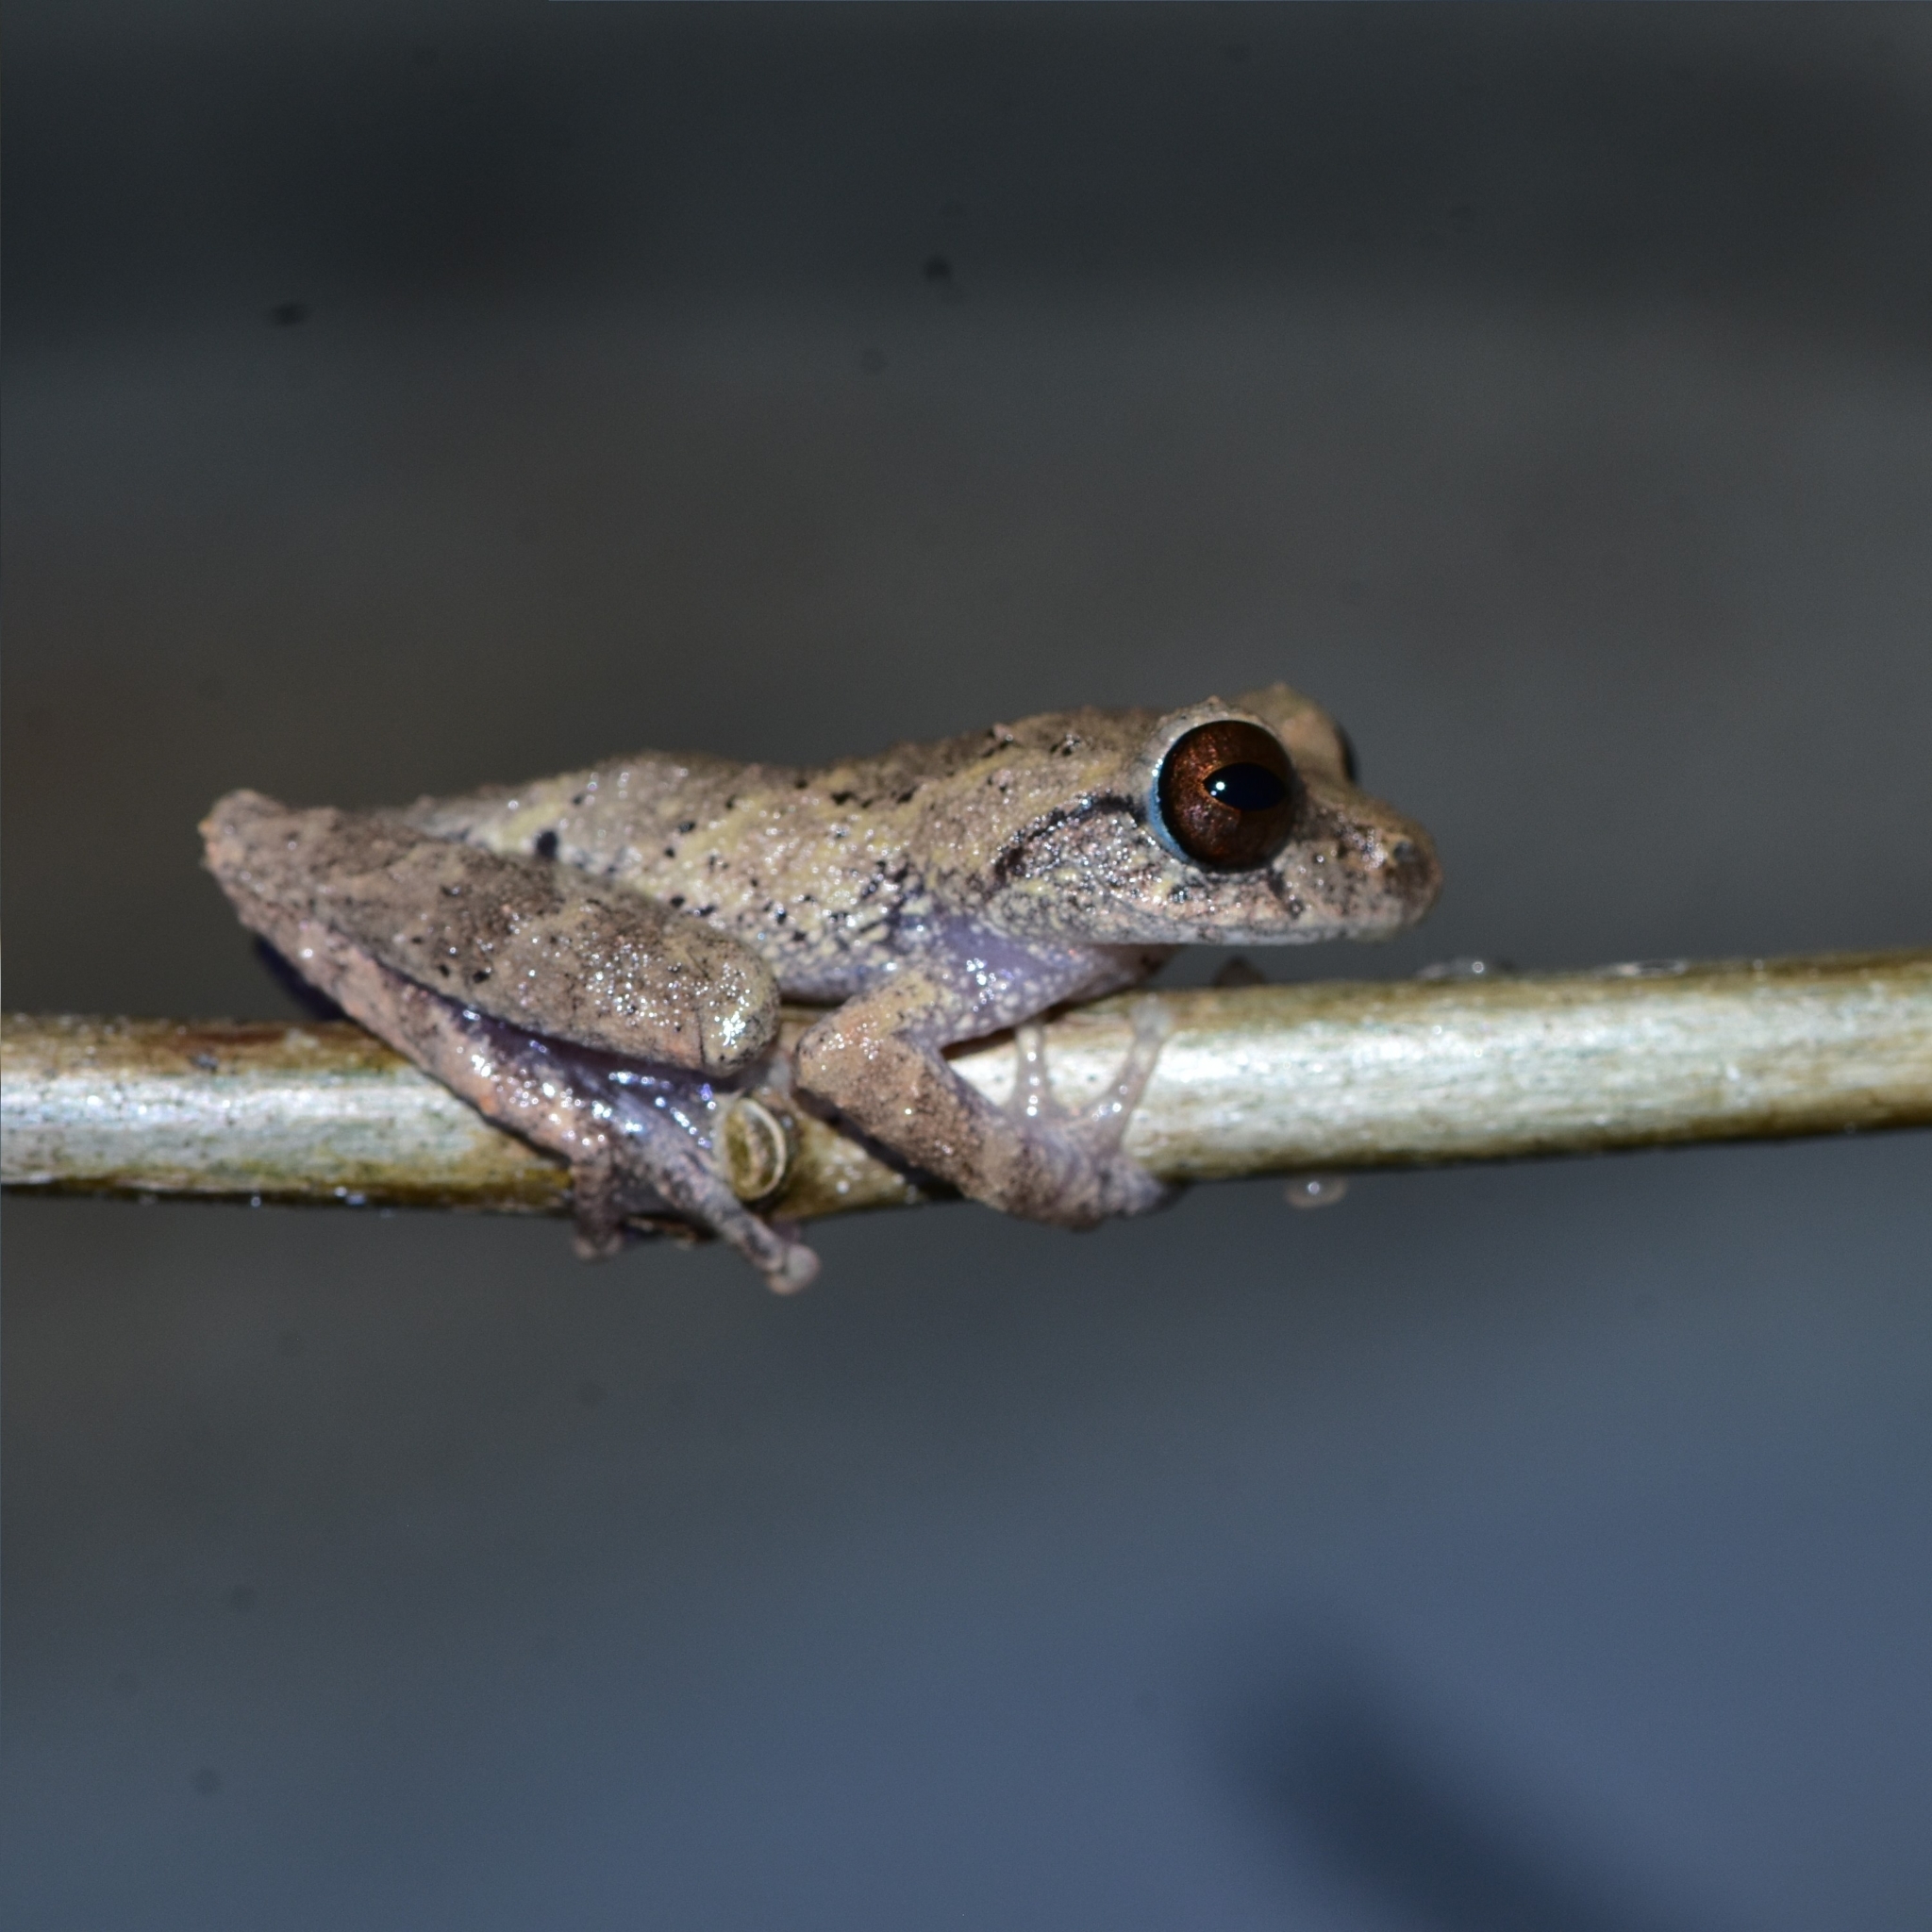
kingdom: Animalia
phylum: Chordata
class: Amphibia
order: Anura
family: Rhacophoridae
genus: Raorchestes
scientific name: Raorchestes munnarensis
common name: Munnar bush frog
